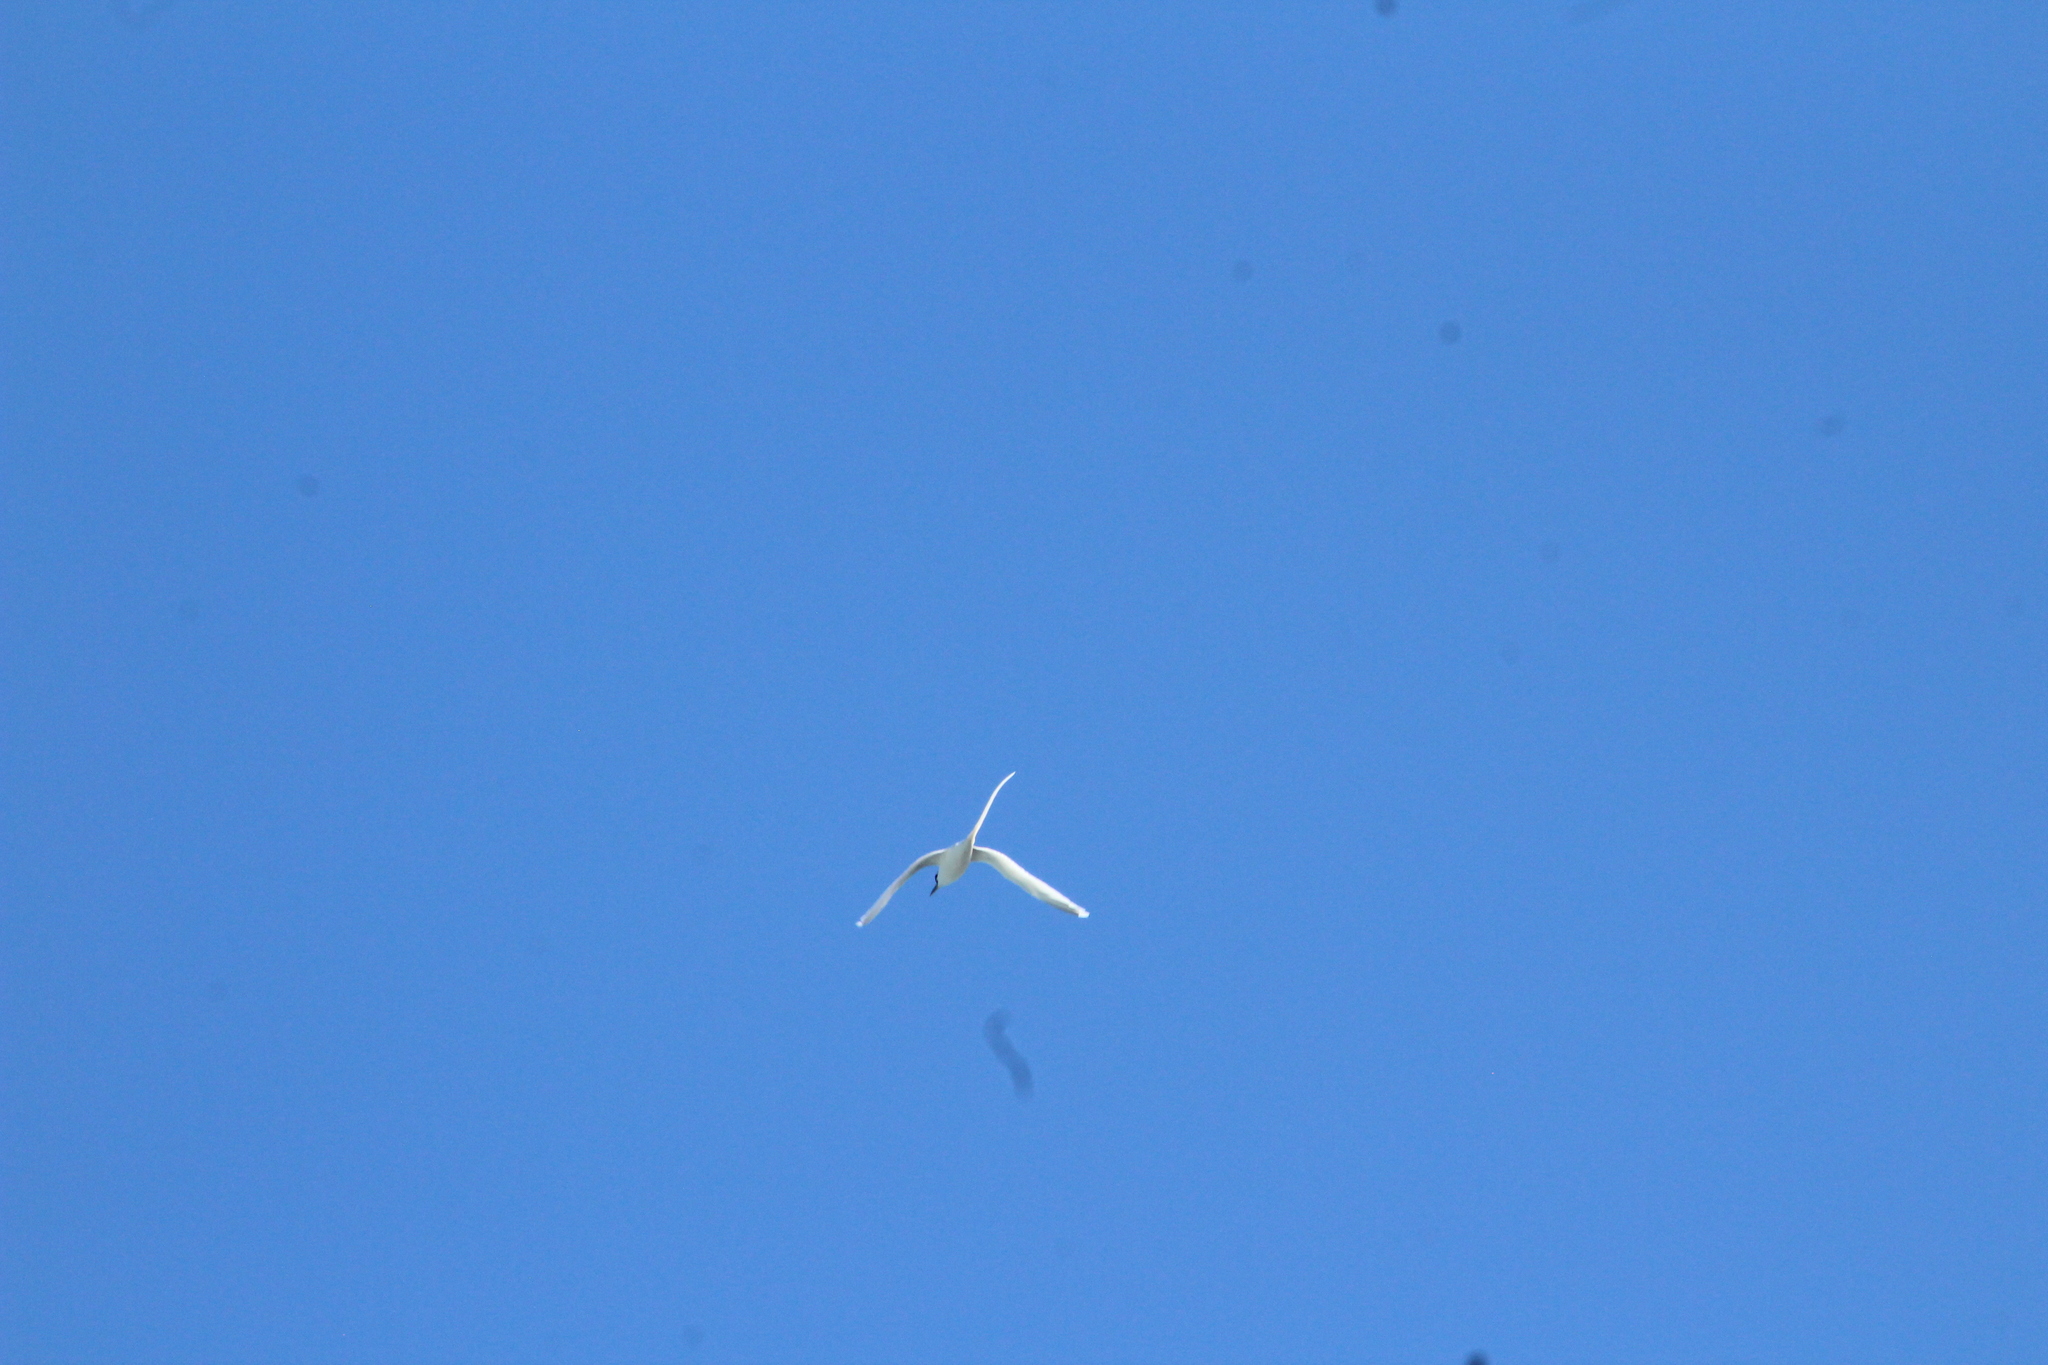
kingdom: Animalia
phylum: Chordata
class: Aves
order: Phaethontiformes
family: Phaethontidae
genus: Phaethon
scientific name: Phaethon lepturus
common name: White-tailed tropicbird
